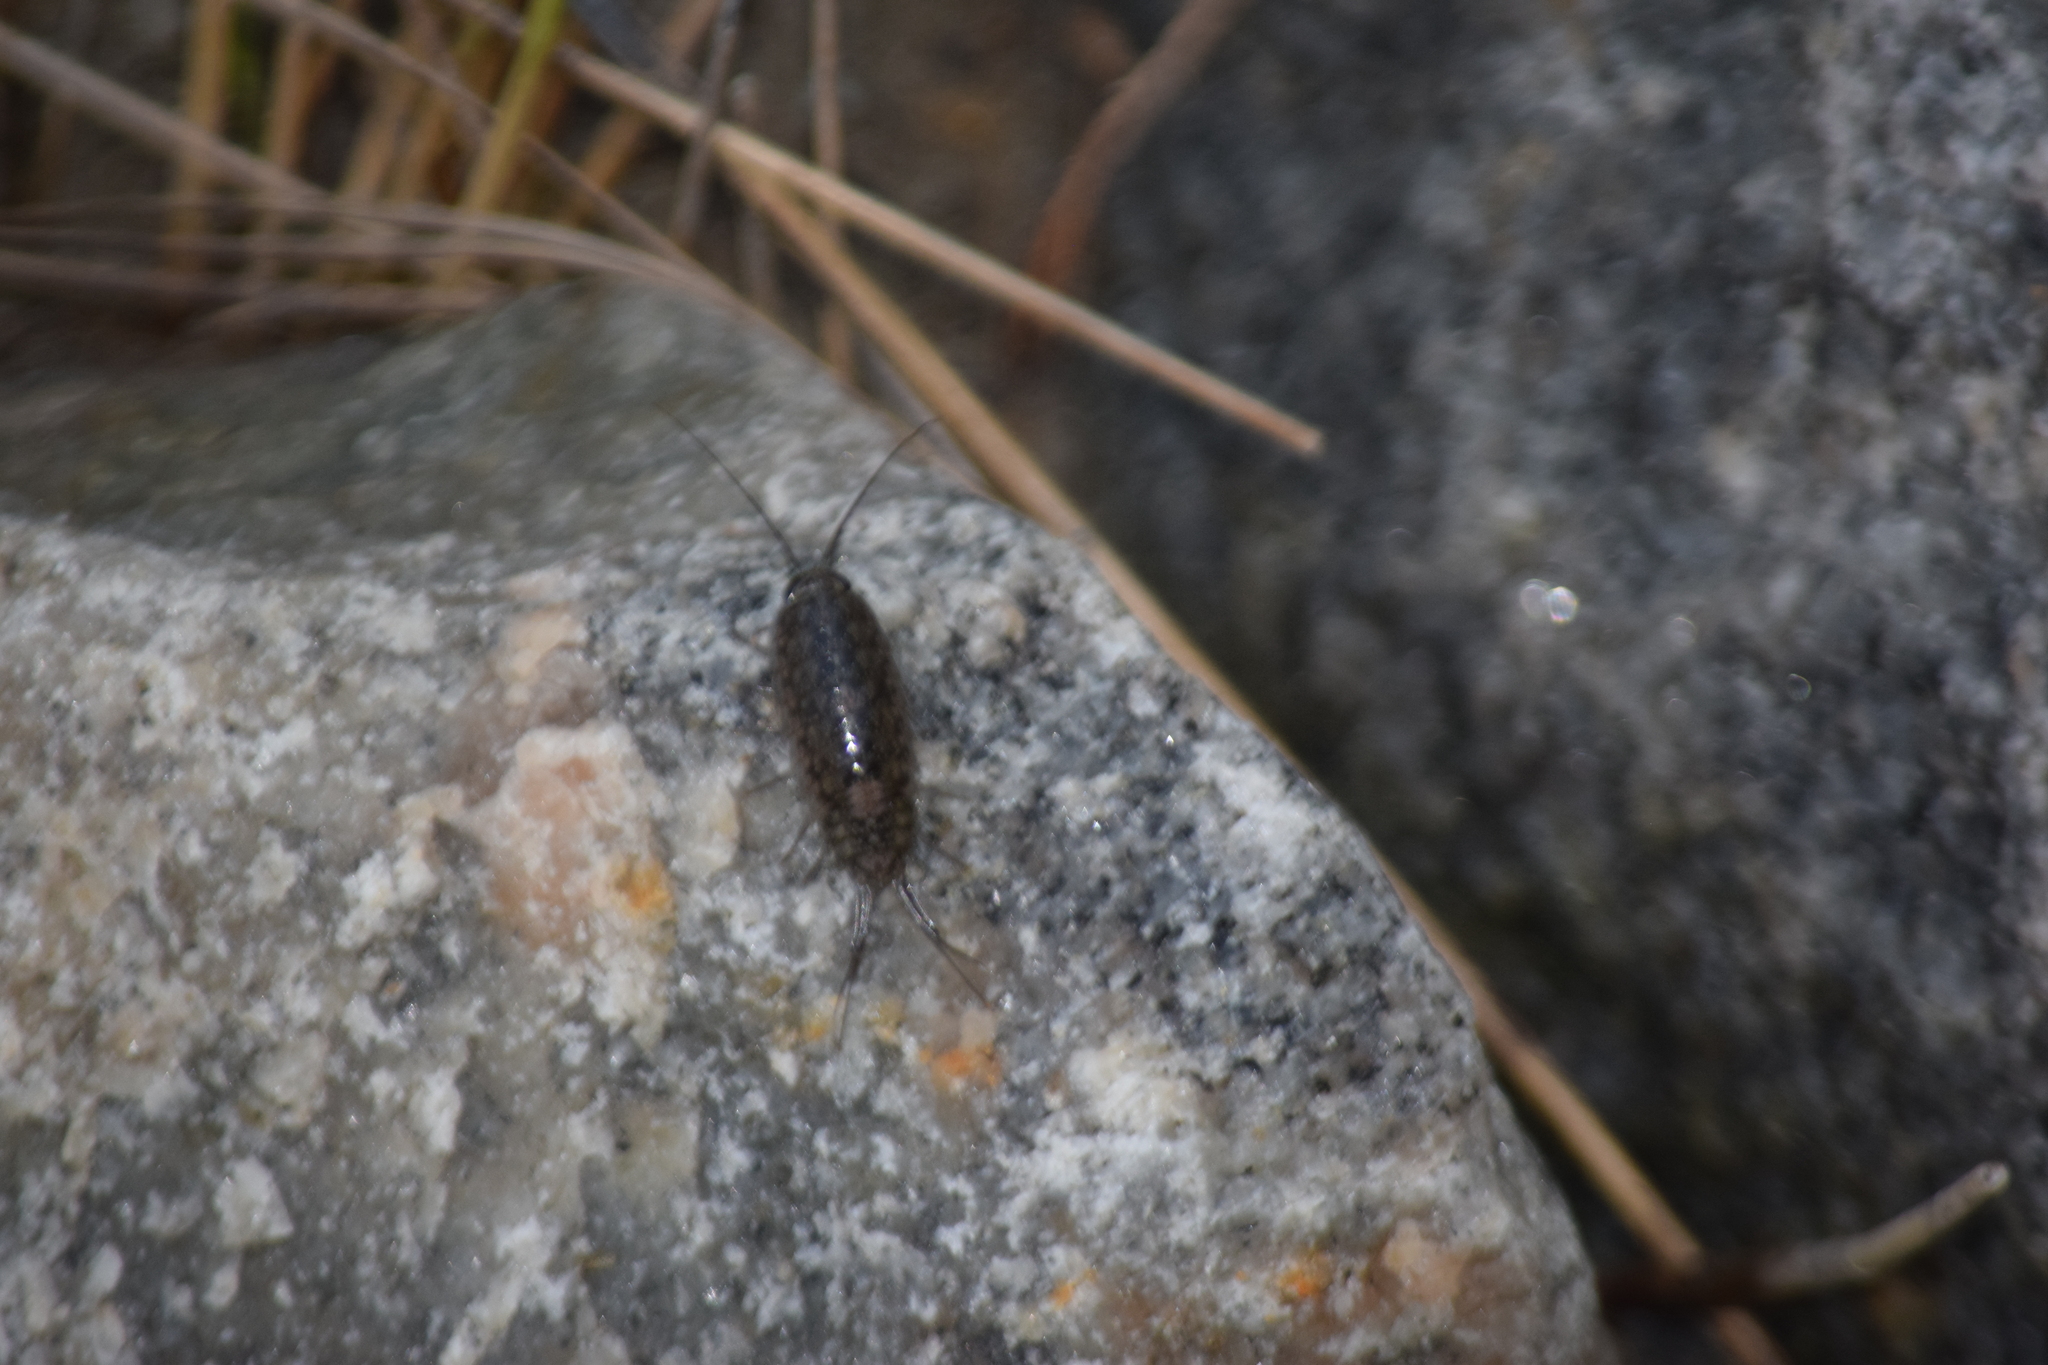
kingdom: Animalia
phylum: Arthropoda
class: Malacostraca
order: Isopoda
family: Ligiidae
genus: Ligia
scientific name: Ligia exotica
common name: Wharf roach
